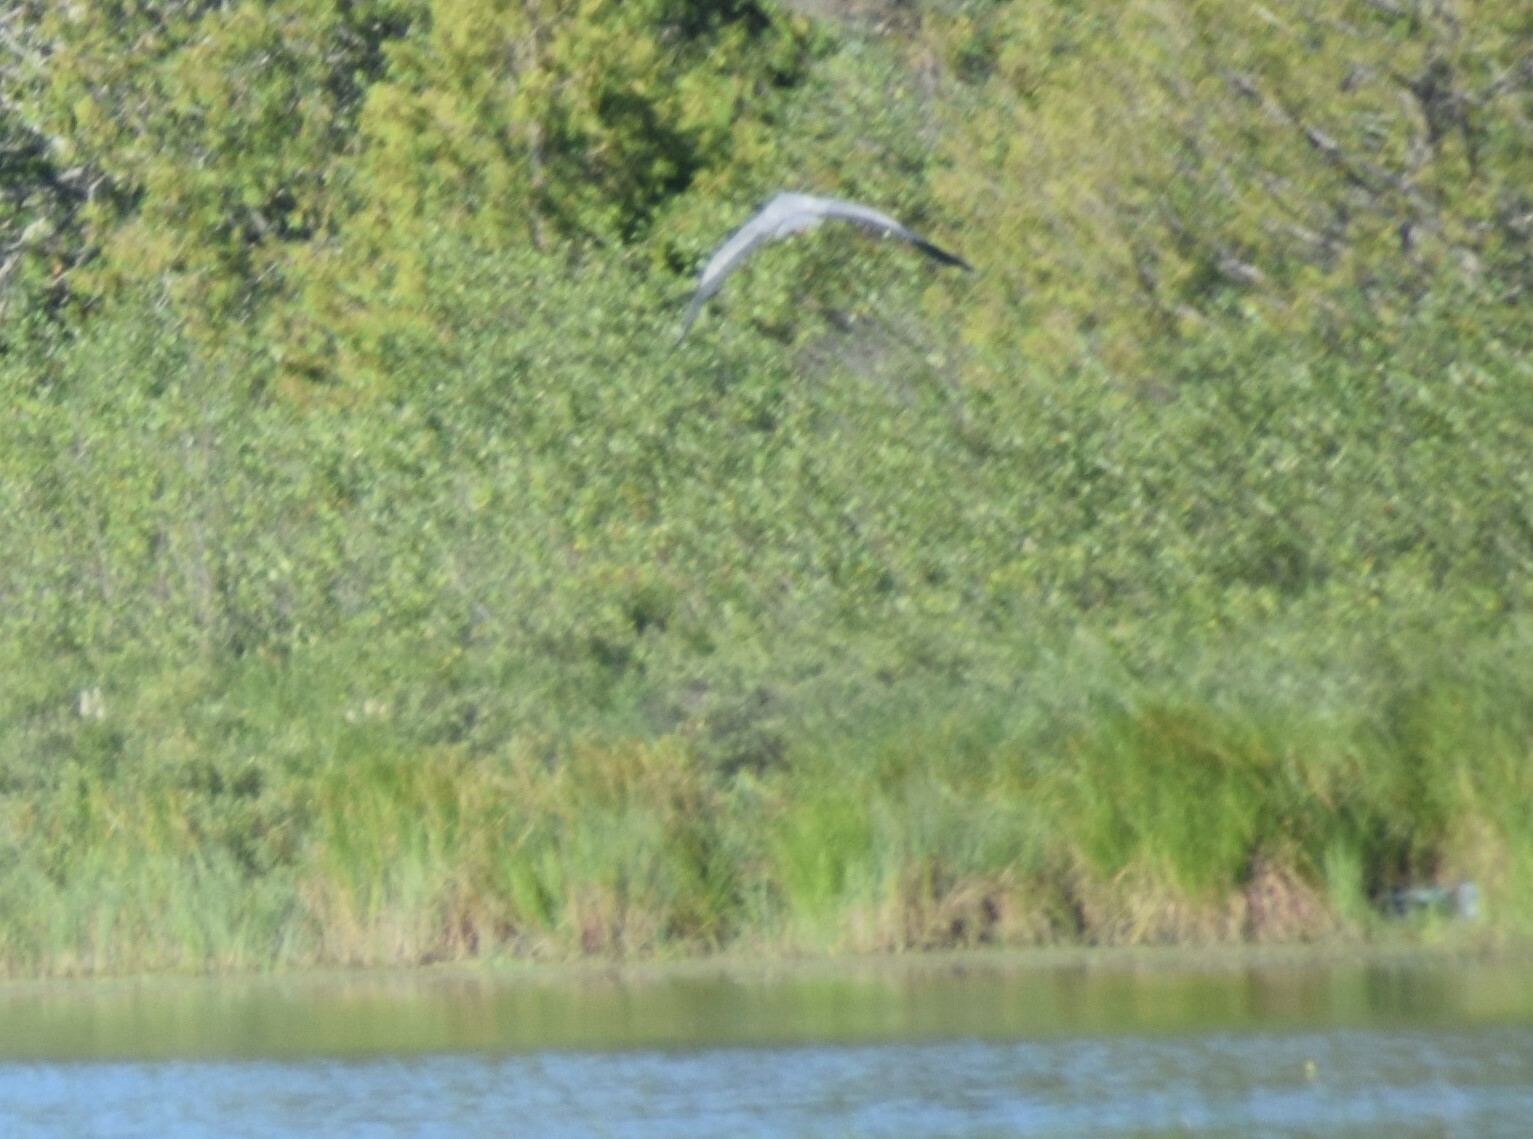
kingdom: Animalia
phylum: Chordata
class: Aves
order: Pelecaniformes
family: Ardeidae
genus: Ardea
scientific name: Ardea herodias
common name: Great blue heron
